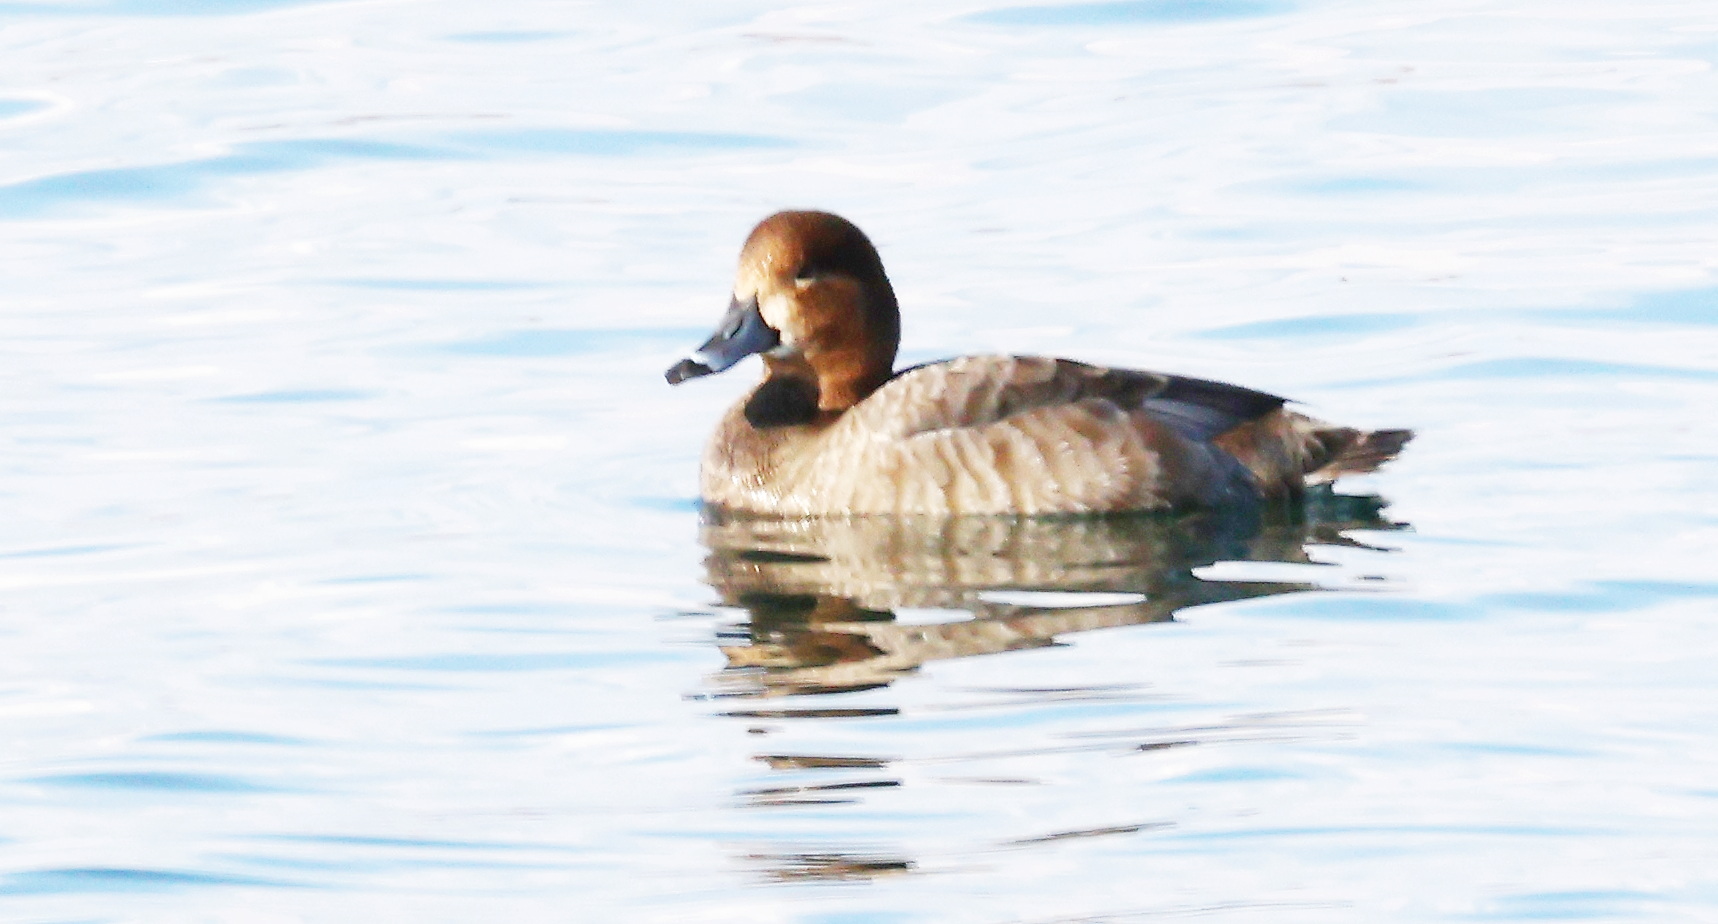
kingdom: Animalia
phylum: Chordata
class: Aves
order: Anseriformes
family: Anatidae
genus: Aythya
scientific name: Aythya americana
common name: Redhead
